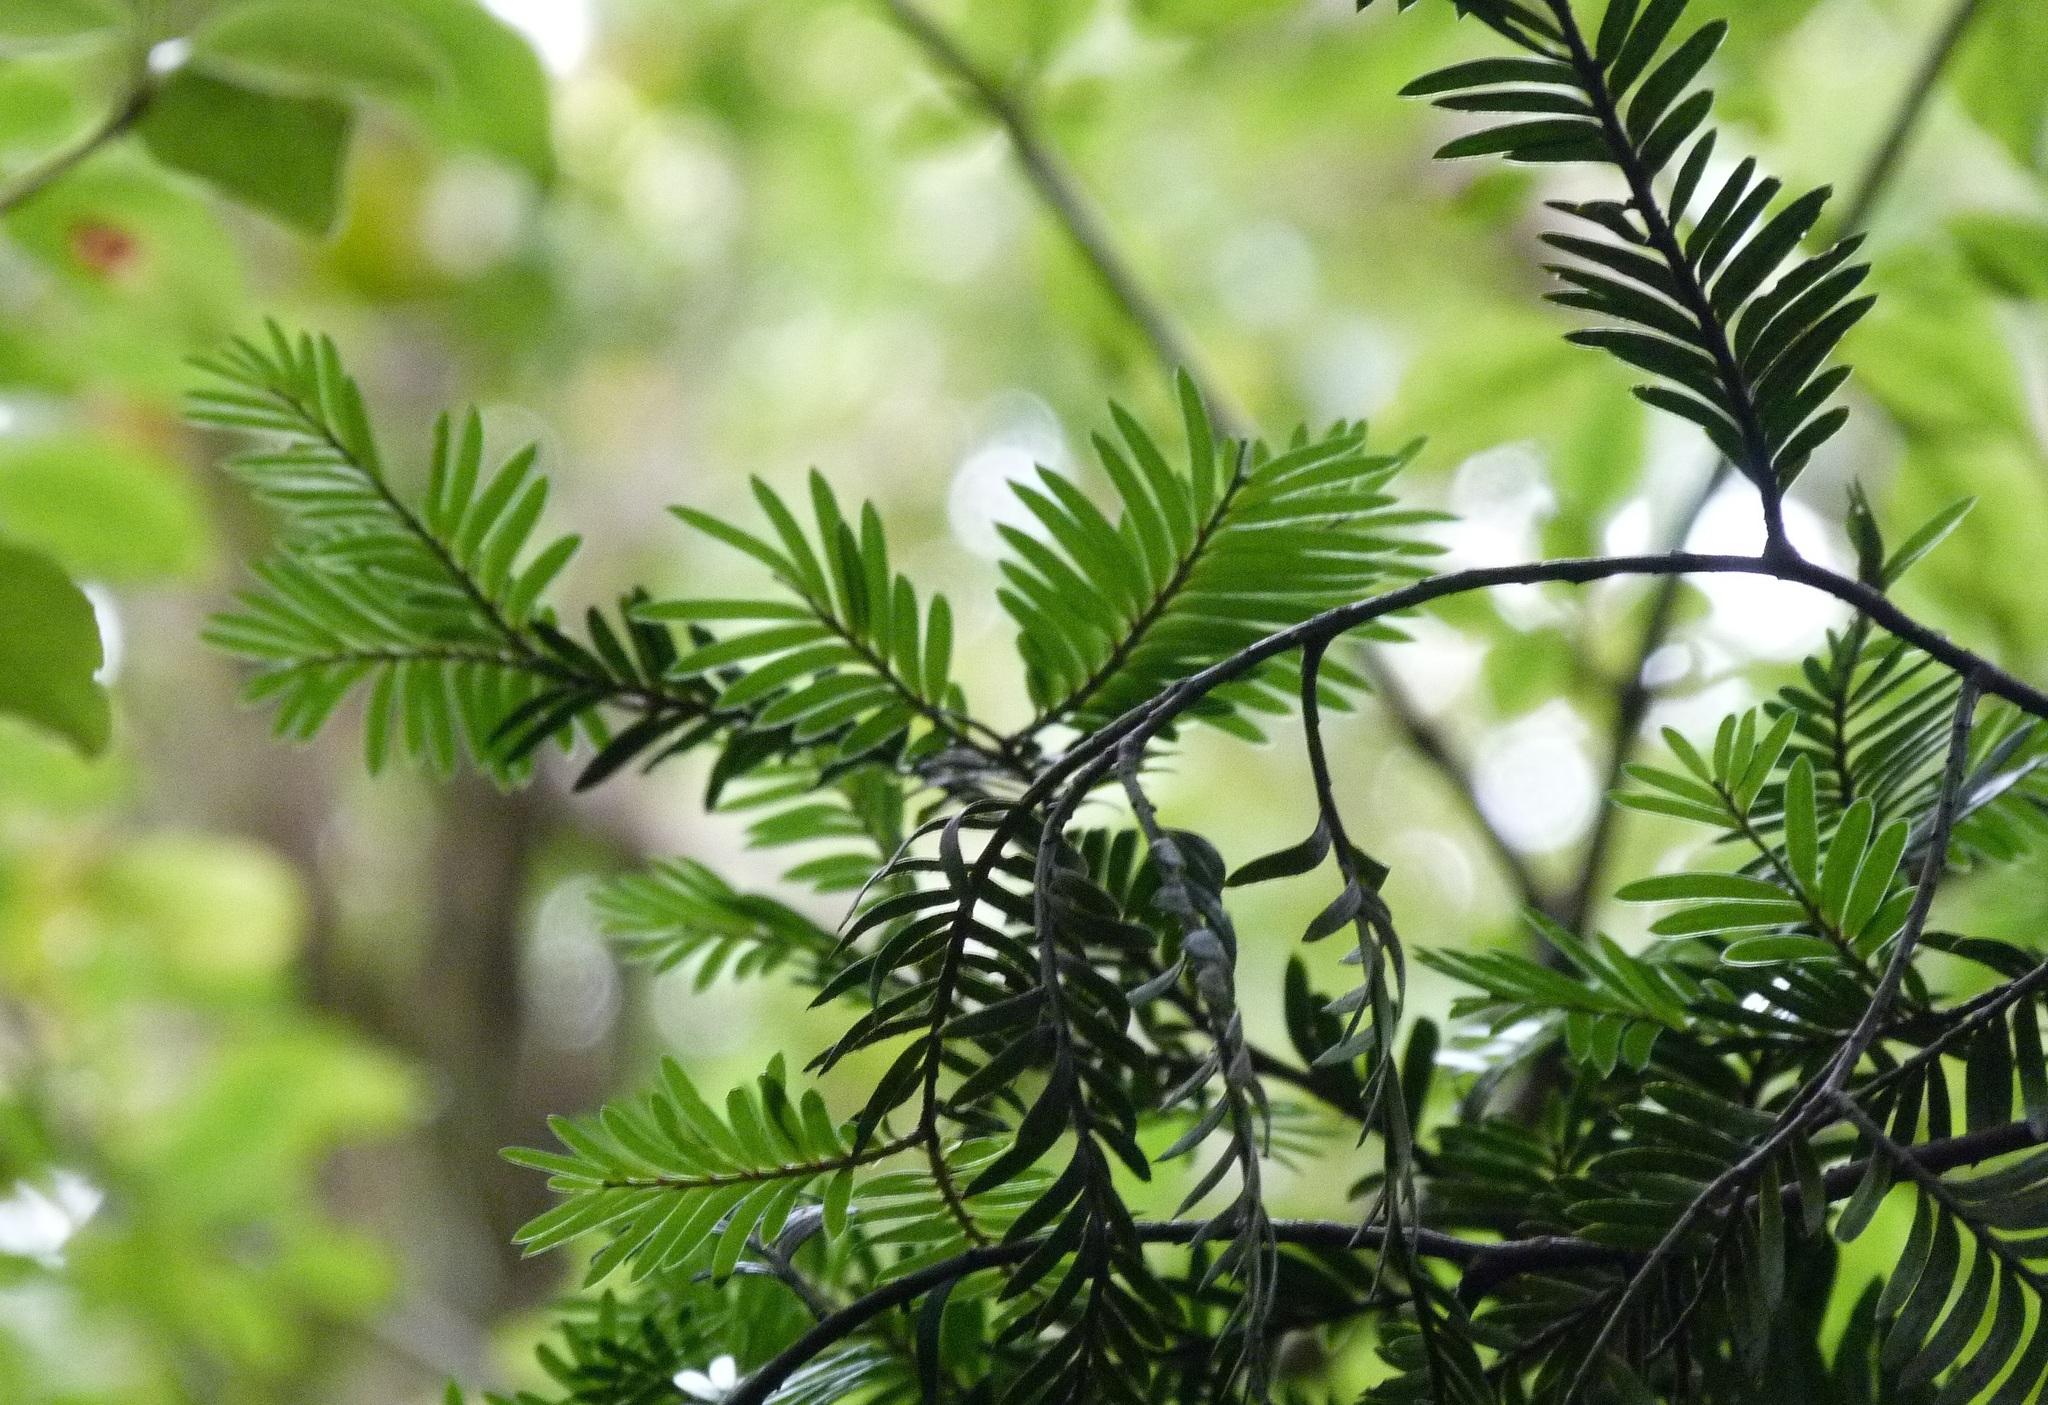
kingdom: Plantae
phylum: Tracheophyta
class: Pinopsida
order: Pinales
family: Podocarpaceae
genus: Prumnopitys
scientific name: Prumnopitys ferruginea
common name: Brown pine
